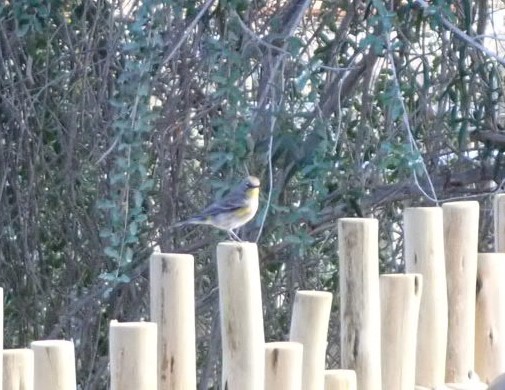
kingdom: Animalia
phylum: Chordata
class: Aves
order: Passeriformes
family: Parulidae
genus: Setophaga
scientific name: Setophaga coronata
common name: Myrtle warbler
